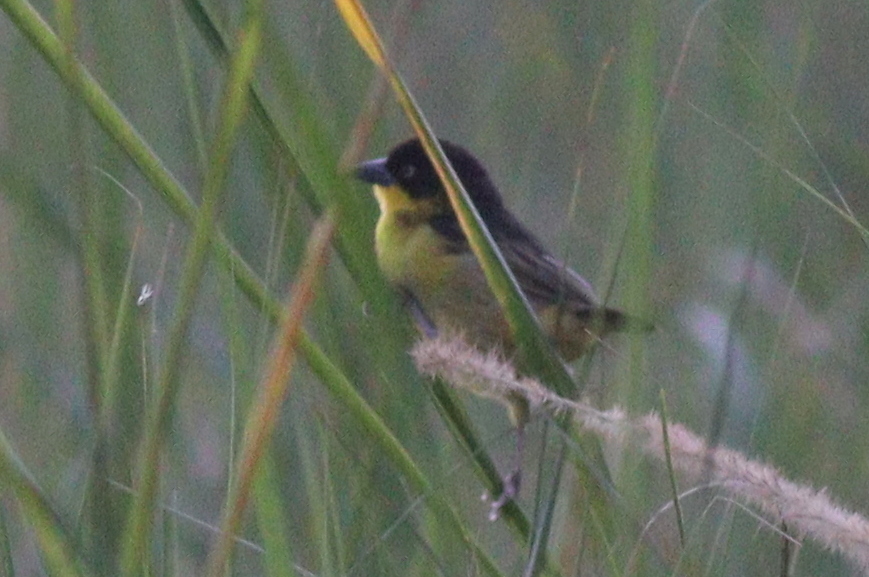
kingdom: Animalia
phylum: Chordata
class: Aves
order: Passeriformes
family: Ploceidae
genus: Ploceus
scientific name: Ploceus baglafecht
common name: Baglafecht weaver
